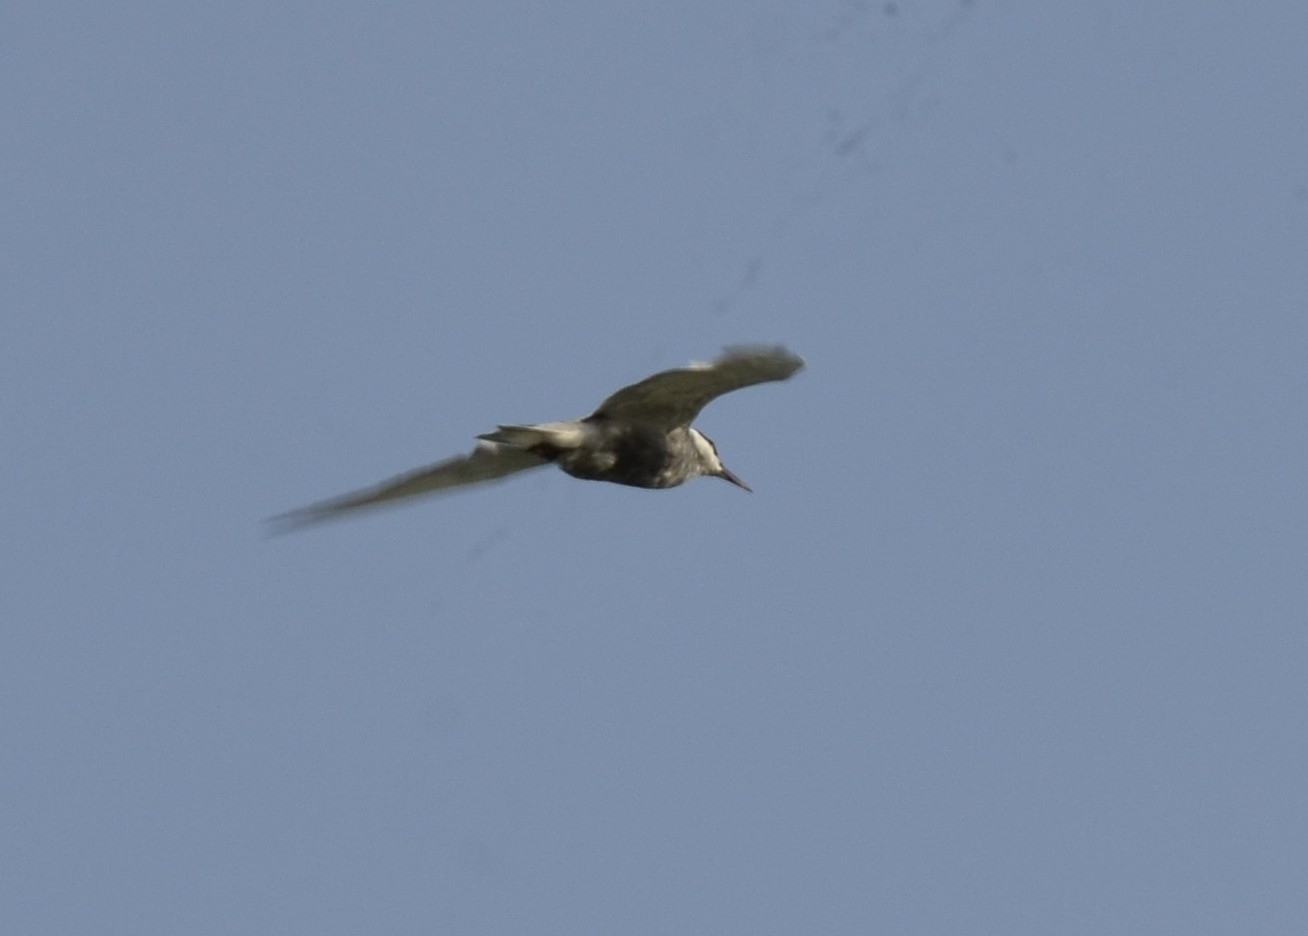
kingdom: Animalia
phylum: Chordata
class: Aves
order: Charadriiformes
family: Laridae
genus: Chlidonias
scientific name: Chlidonias hybrida
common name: Whiskered tern
